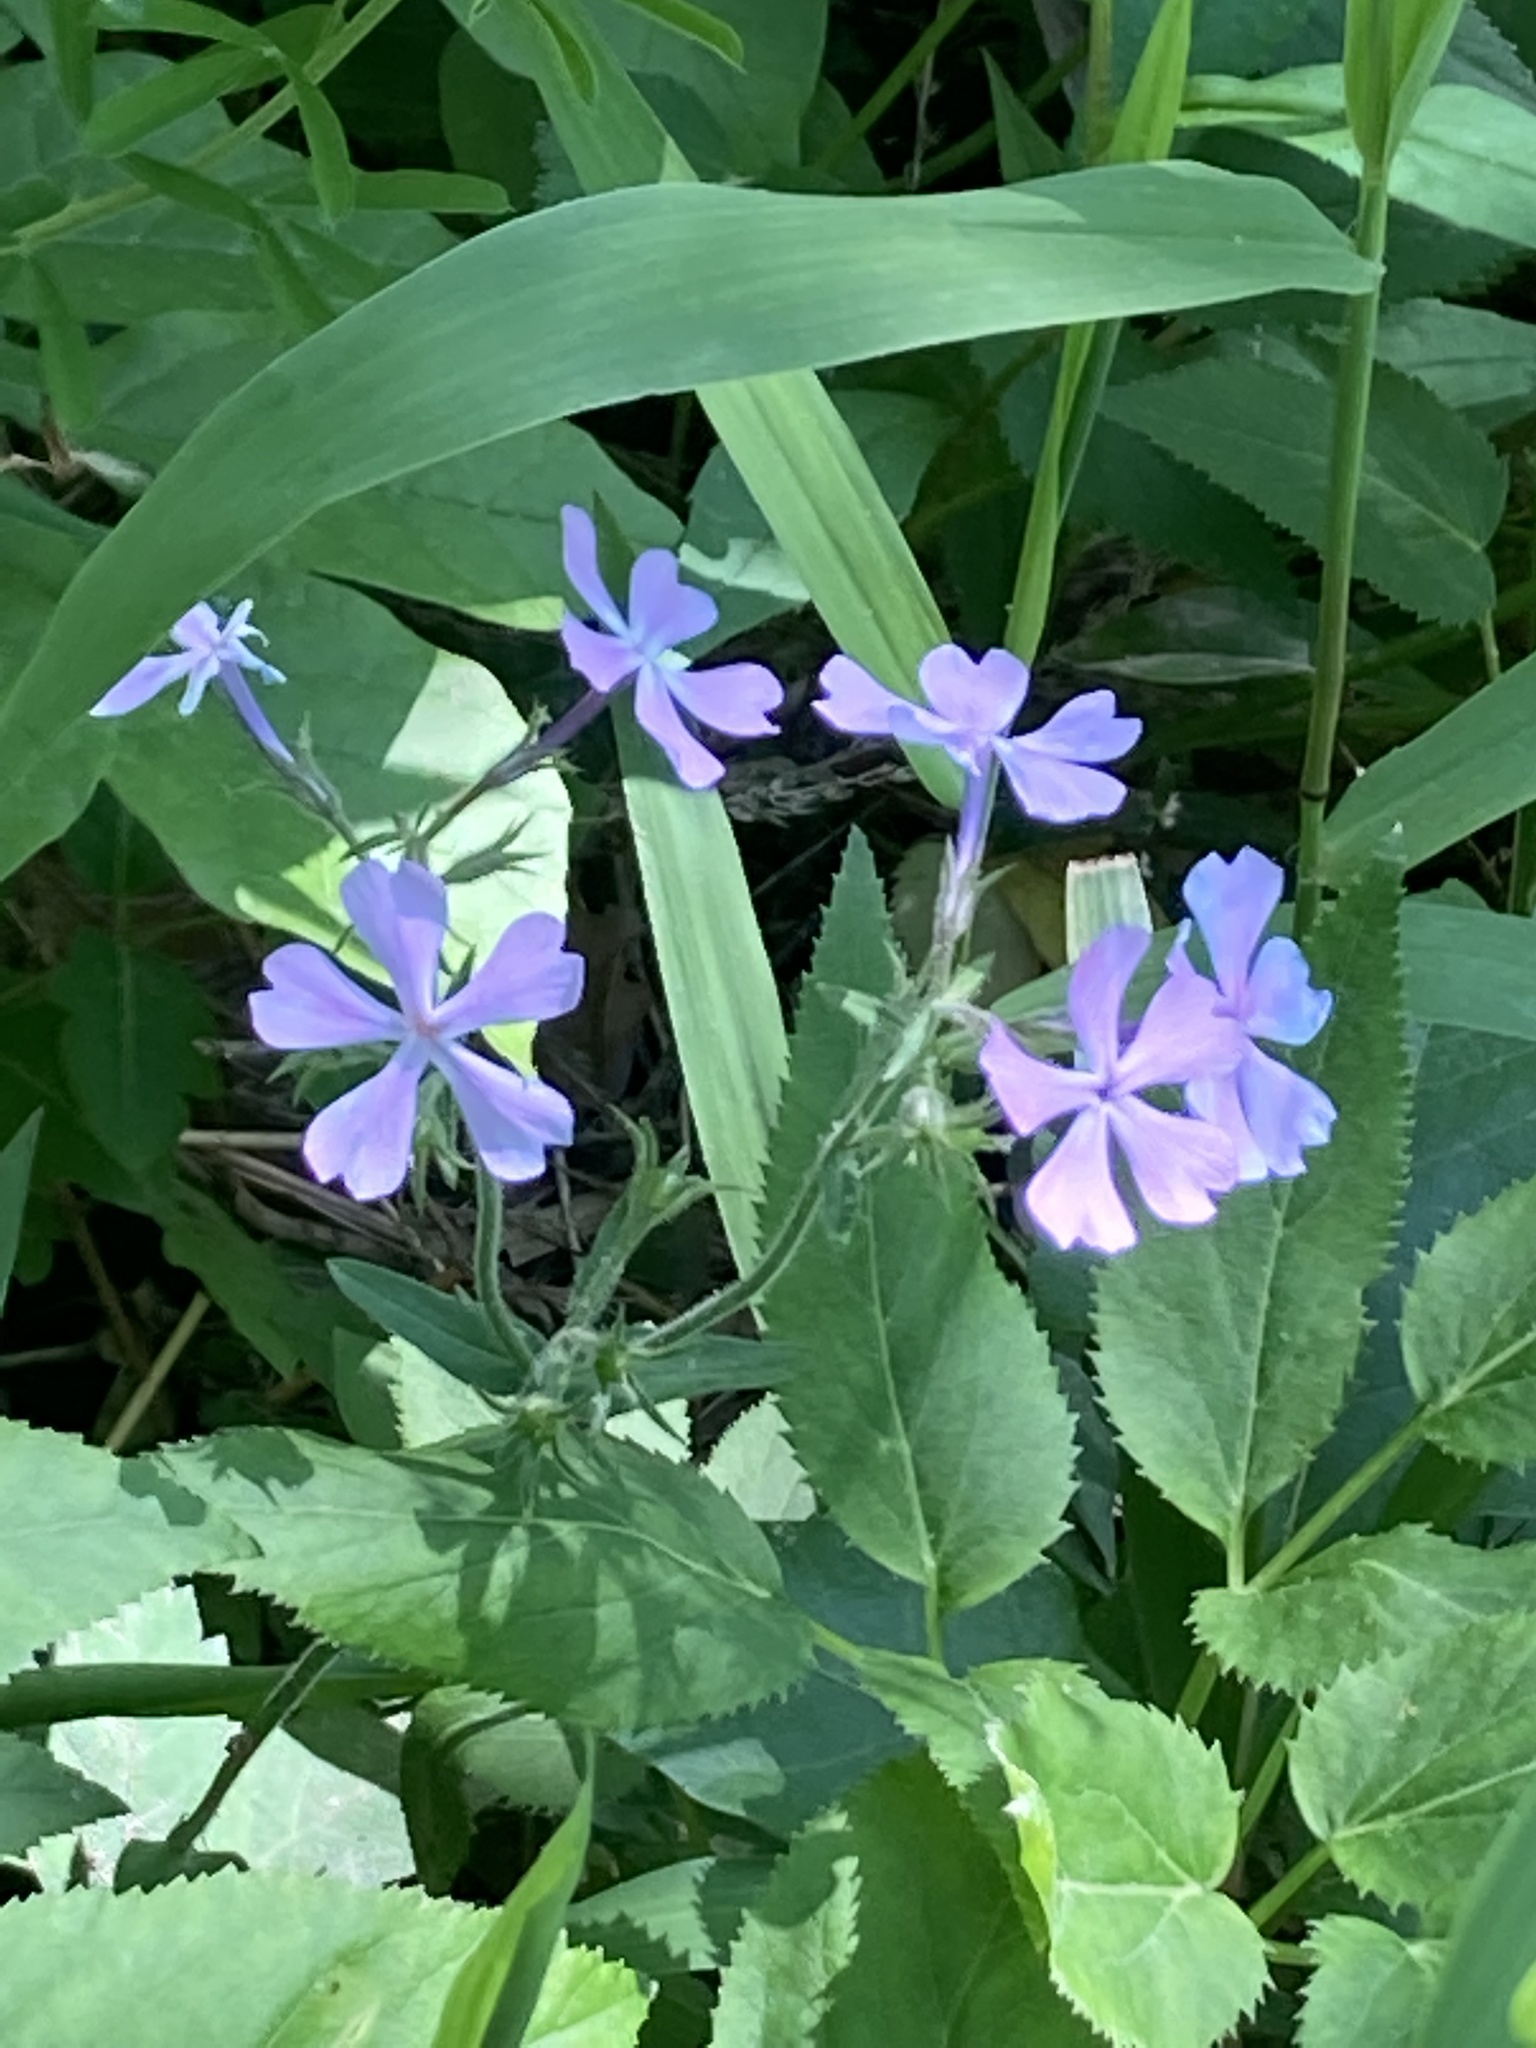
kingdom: Plantae
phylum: Tracheophyta
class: Magnoliopsida
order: Ericales
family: Polemoniaceae
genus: Phlox
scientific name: Phlox divaricata
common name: Blue phlox
